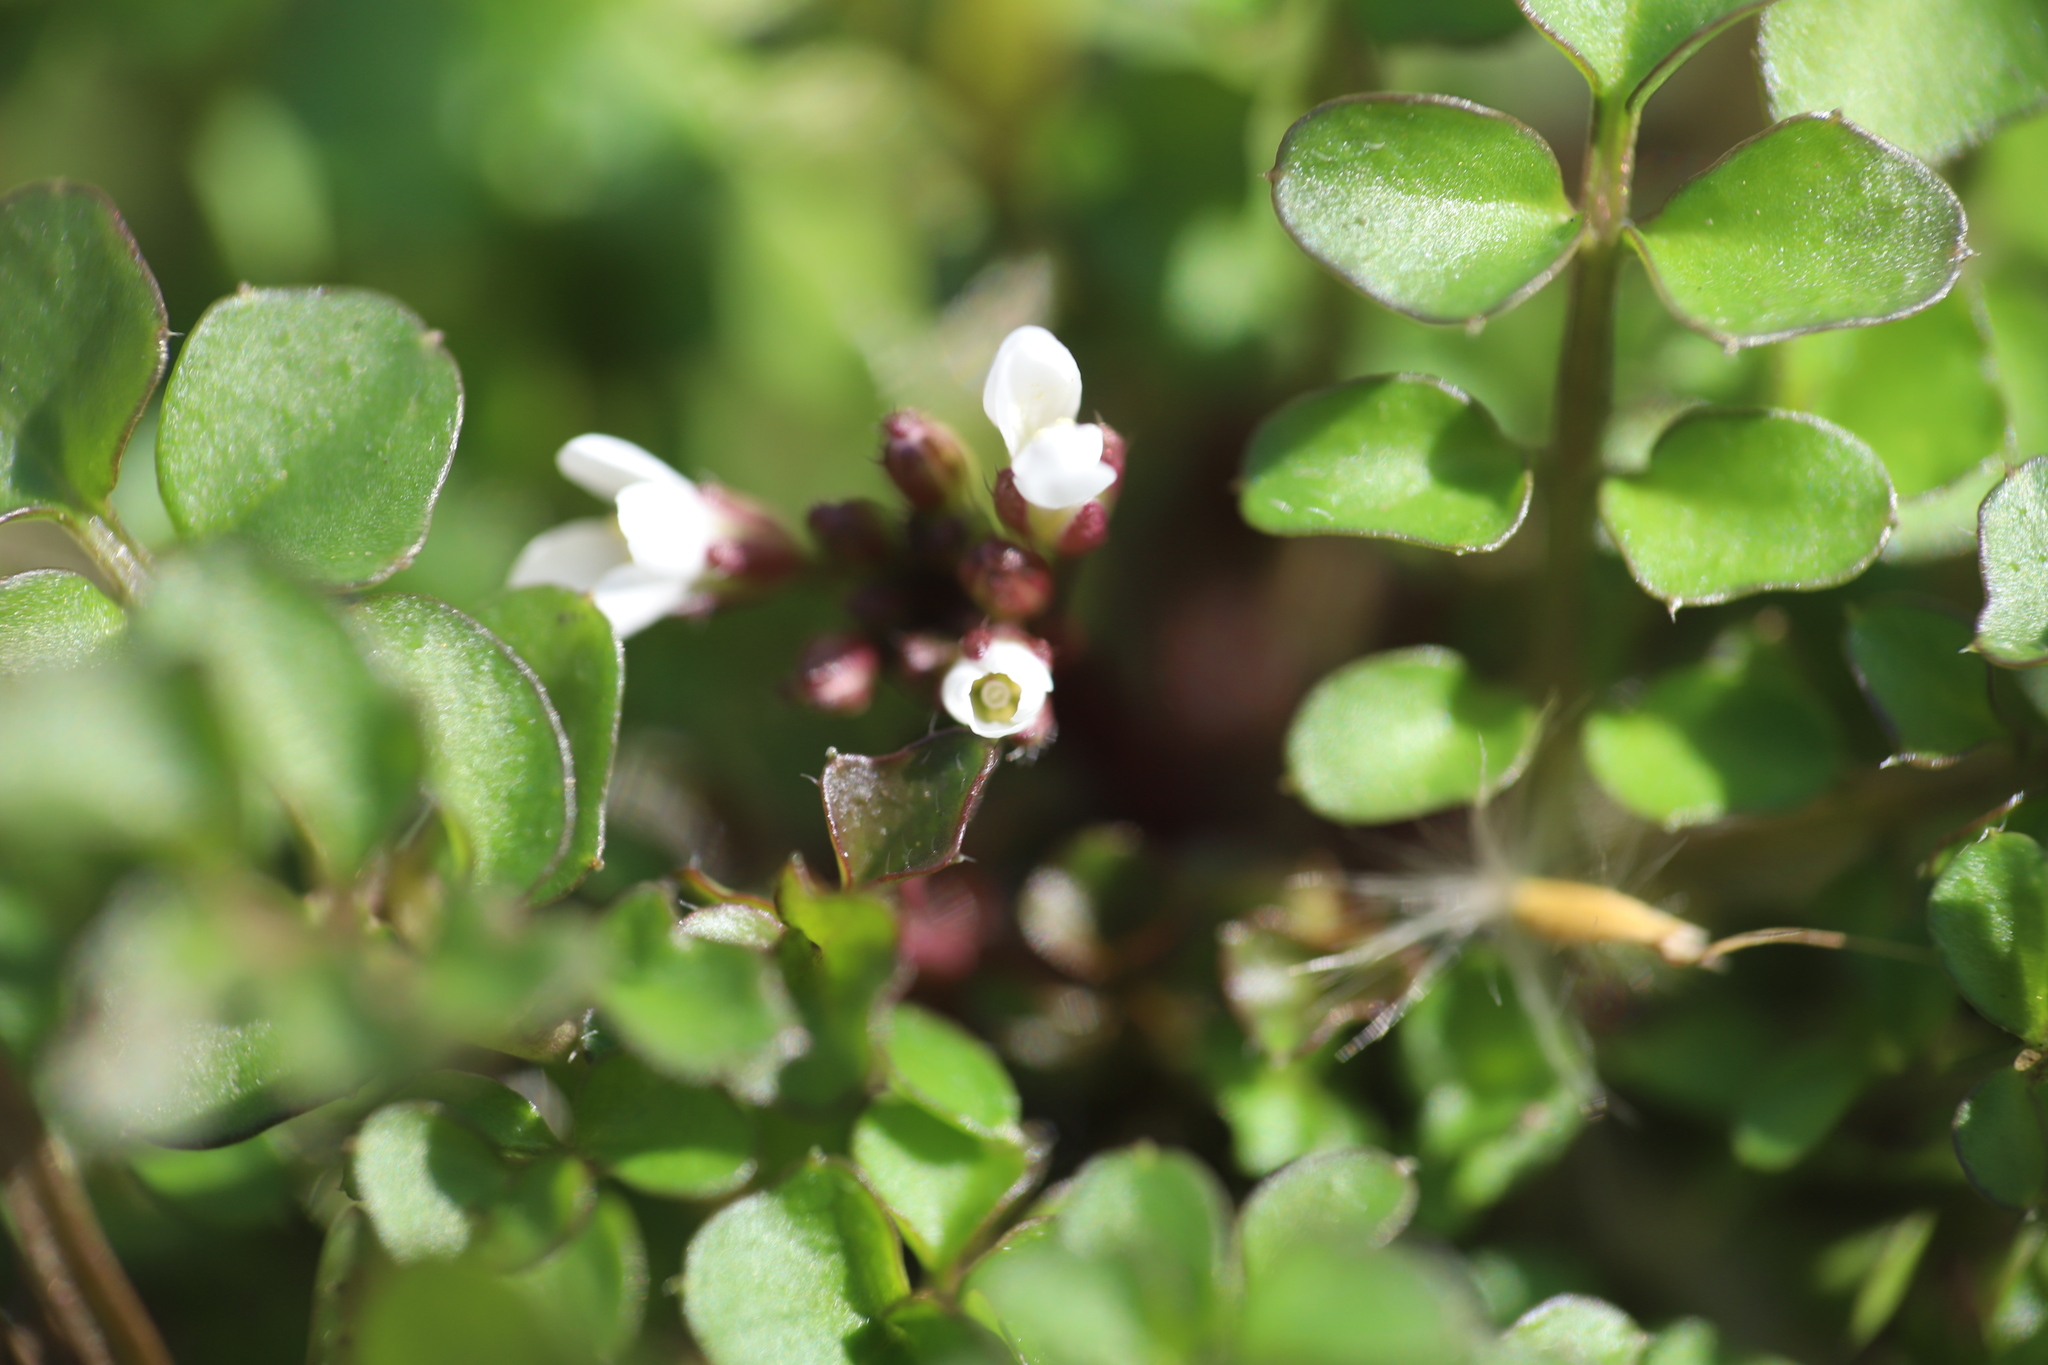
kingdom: Plantae
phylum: Tracheophyta
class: Magnoliopsida
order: Brassicales
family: Brassicaceae
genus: Cardamine
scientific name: Cardamine hirsuta
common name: Hairy bittercress
